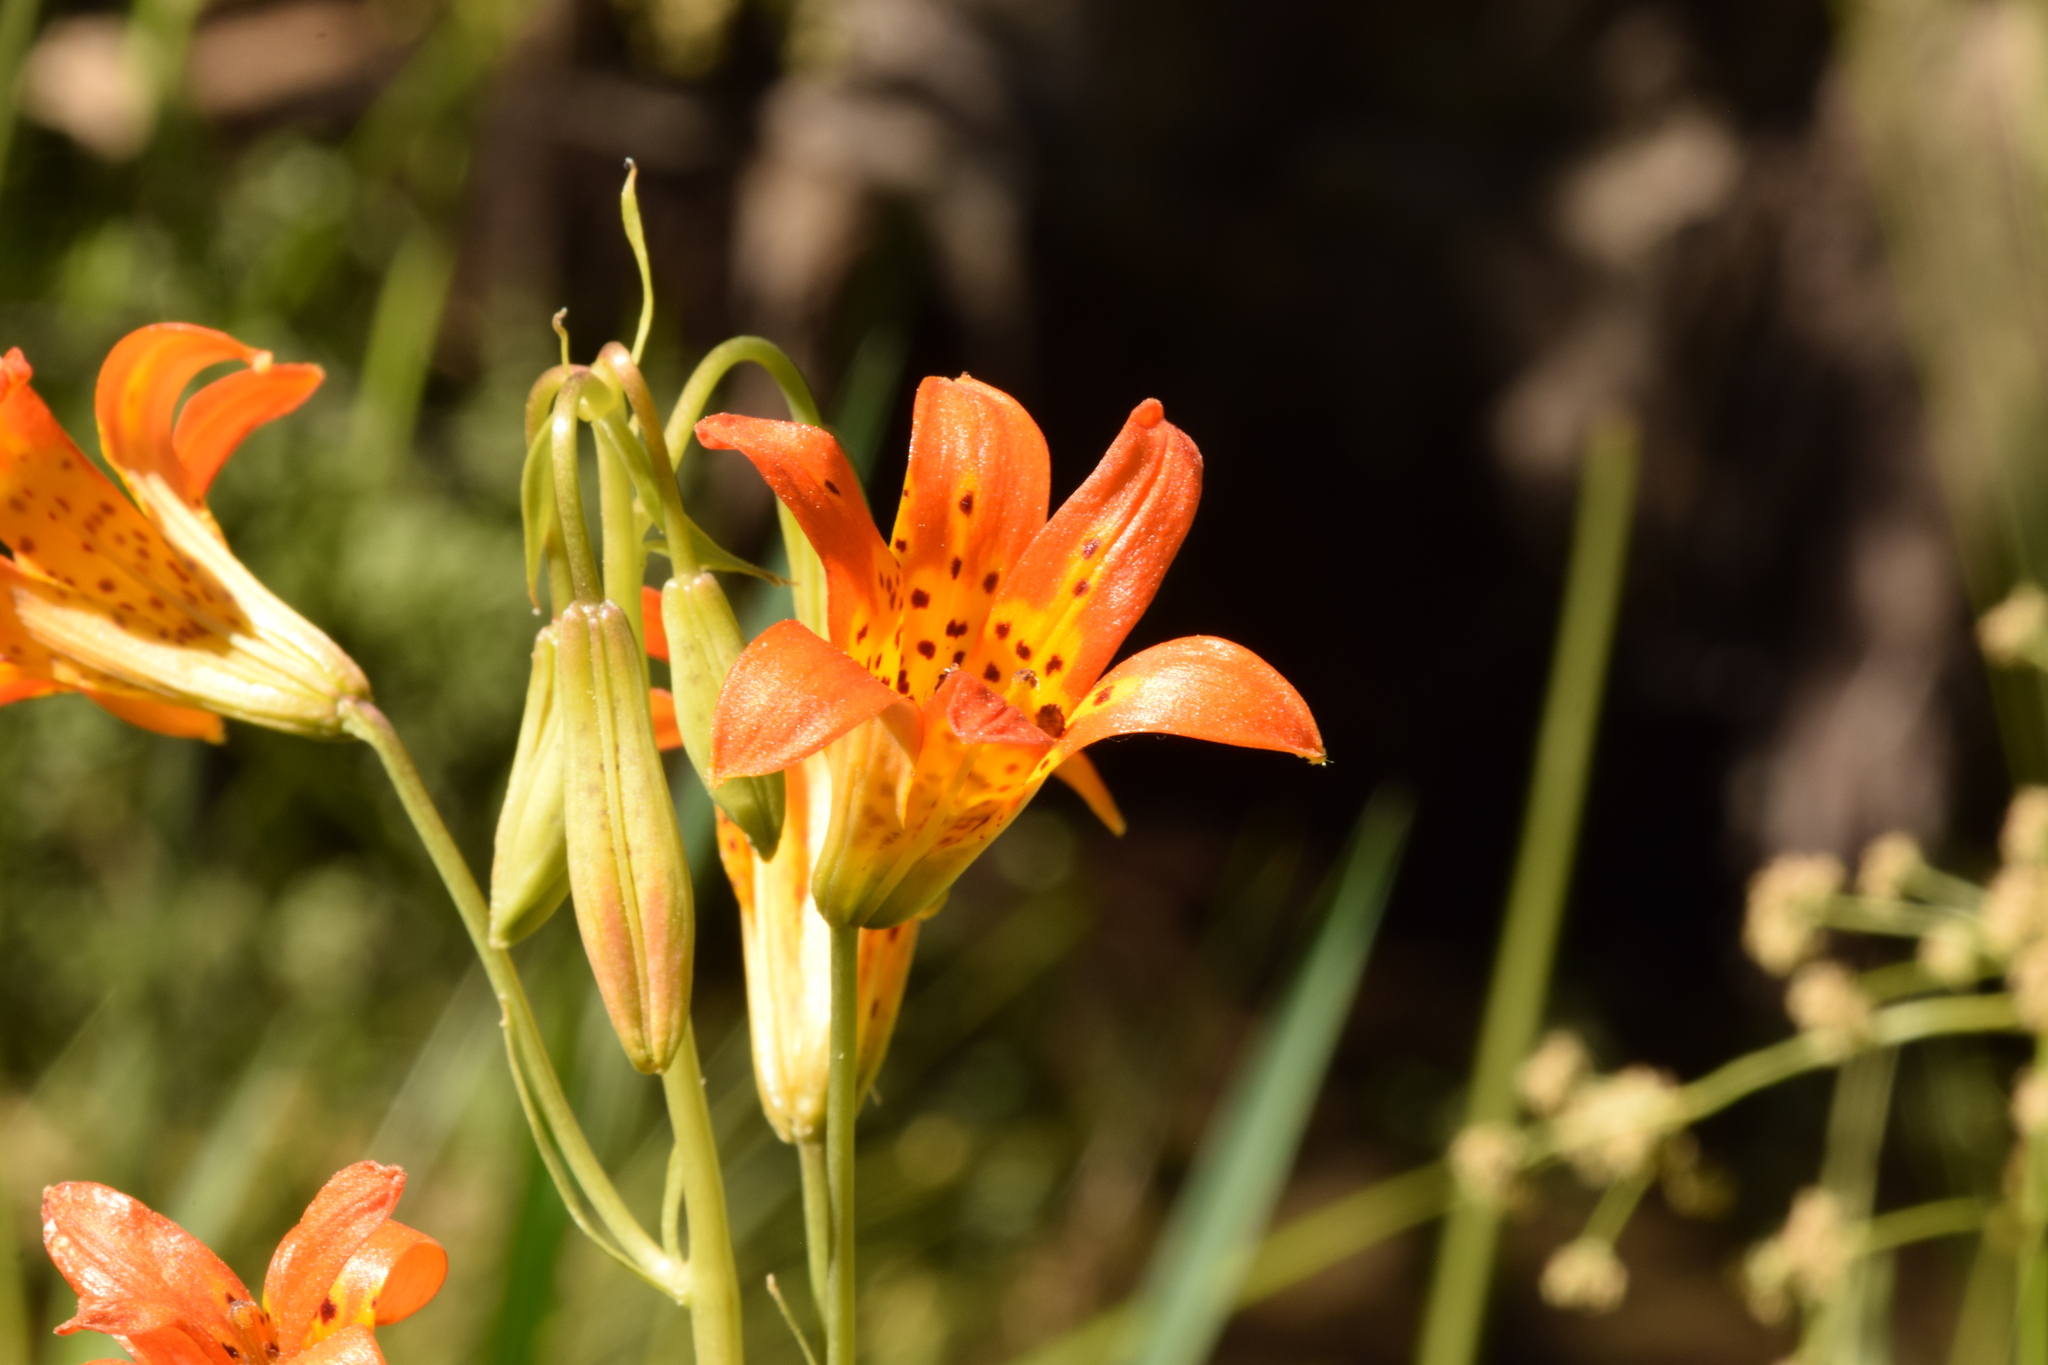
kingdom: Plantae
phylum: Tracheophyta
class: Liliopsida
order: Liliales
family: Liliaceae
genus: Lilium
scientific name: Lilium parvum
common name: Alpine lily
